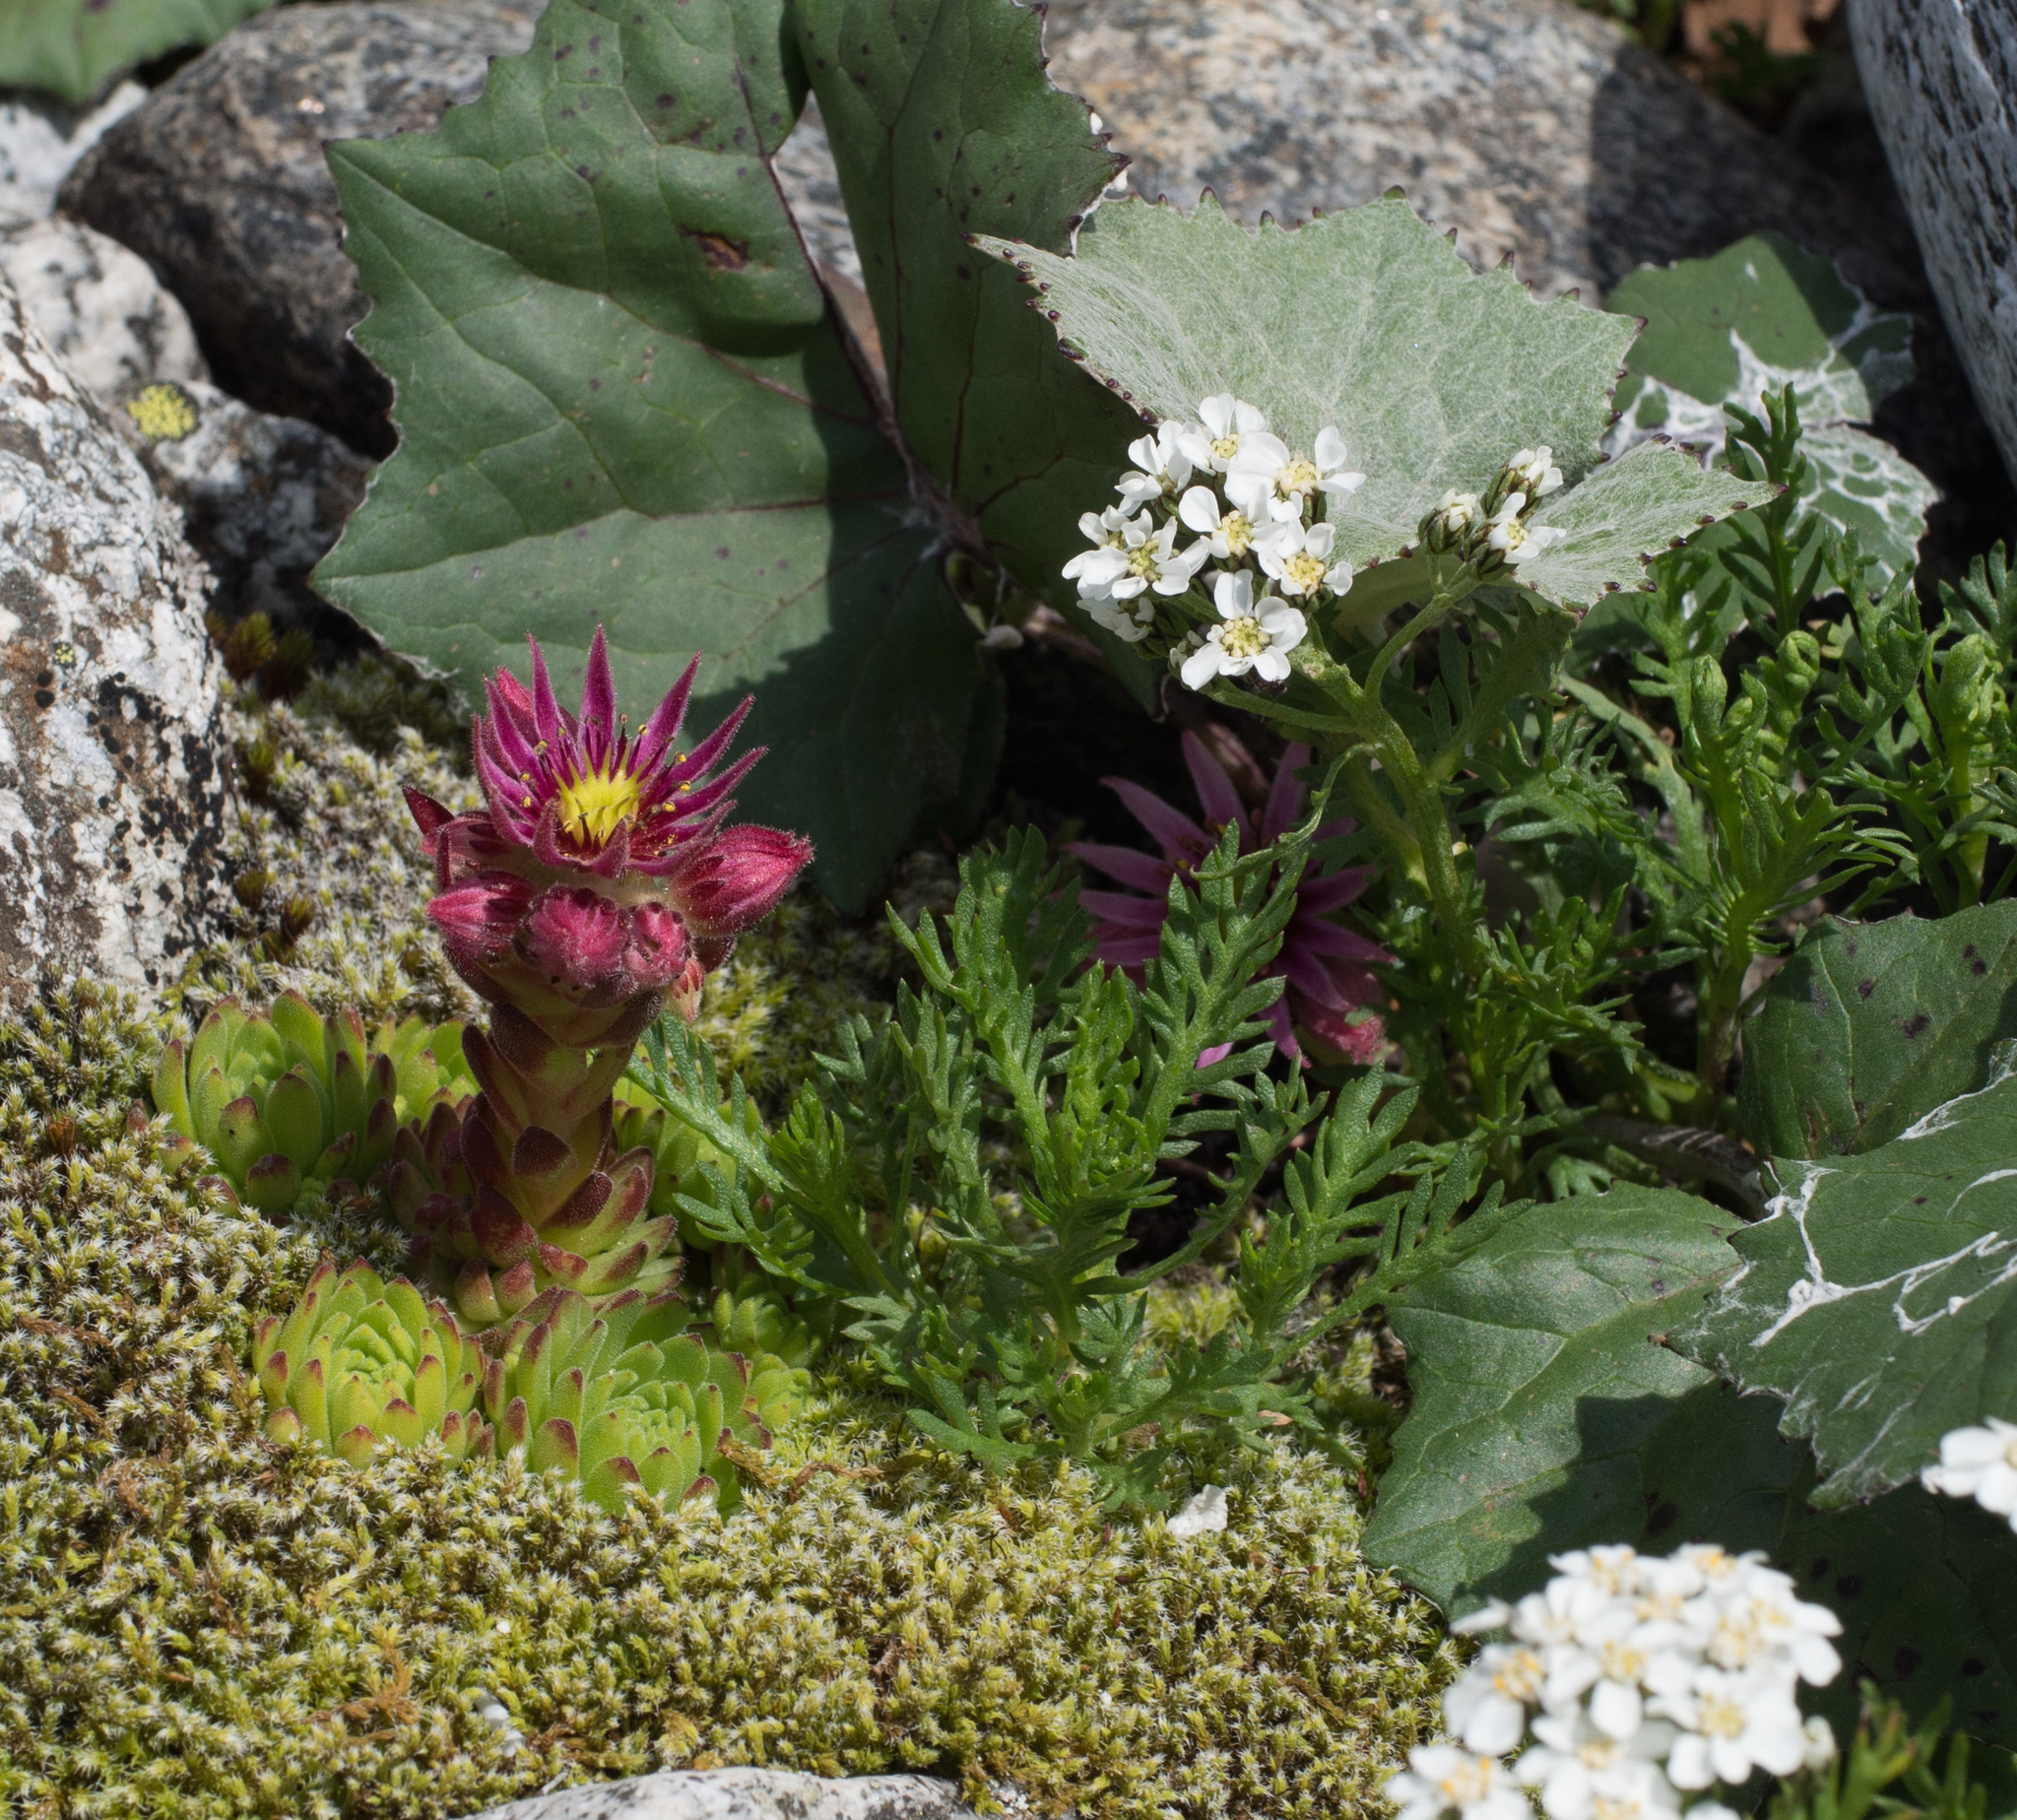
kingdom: Plantae
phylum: Tracheophyta
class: Magnoliopsida
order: Asterales
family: Asteraceae
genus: Achillea
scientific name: Achillea erba-rotta
